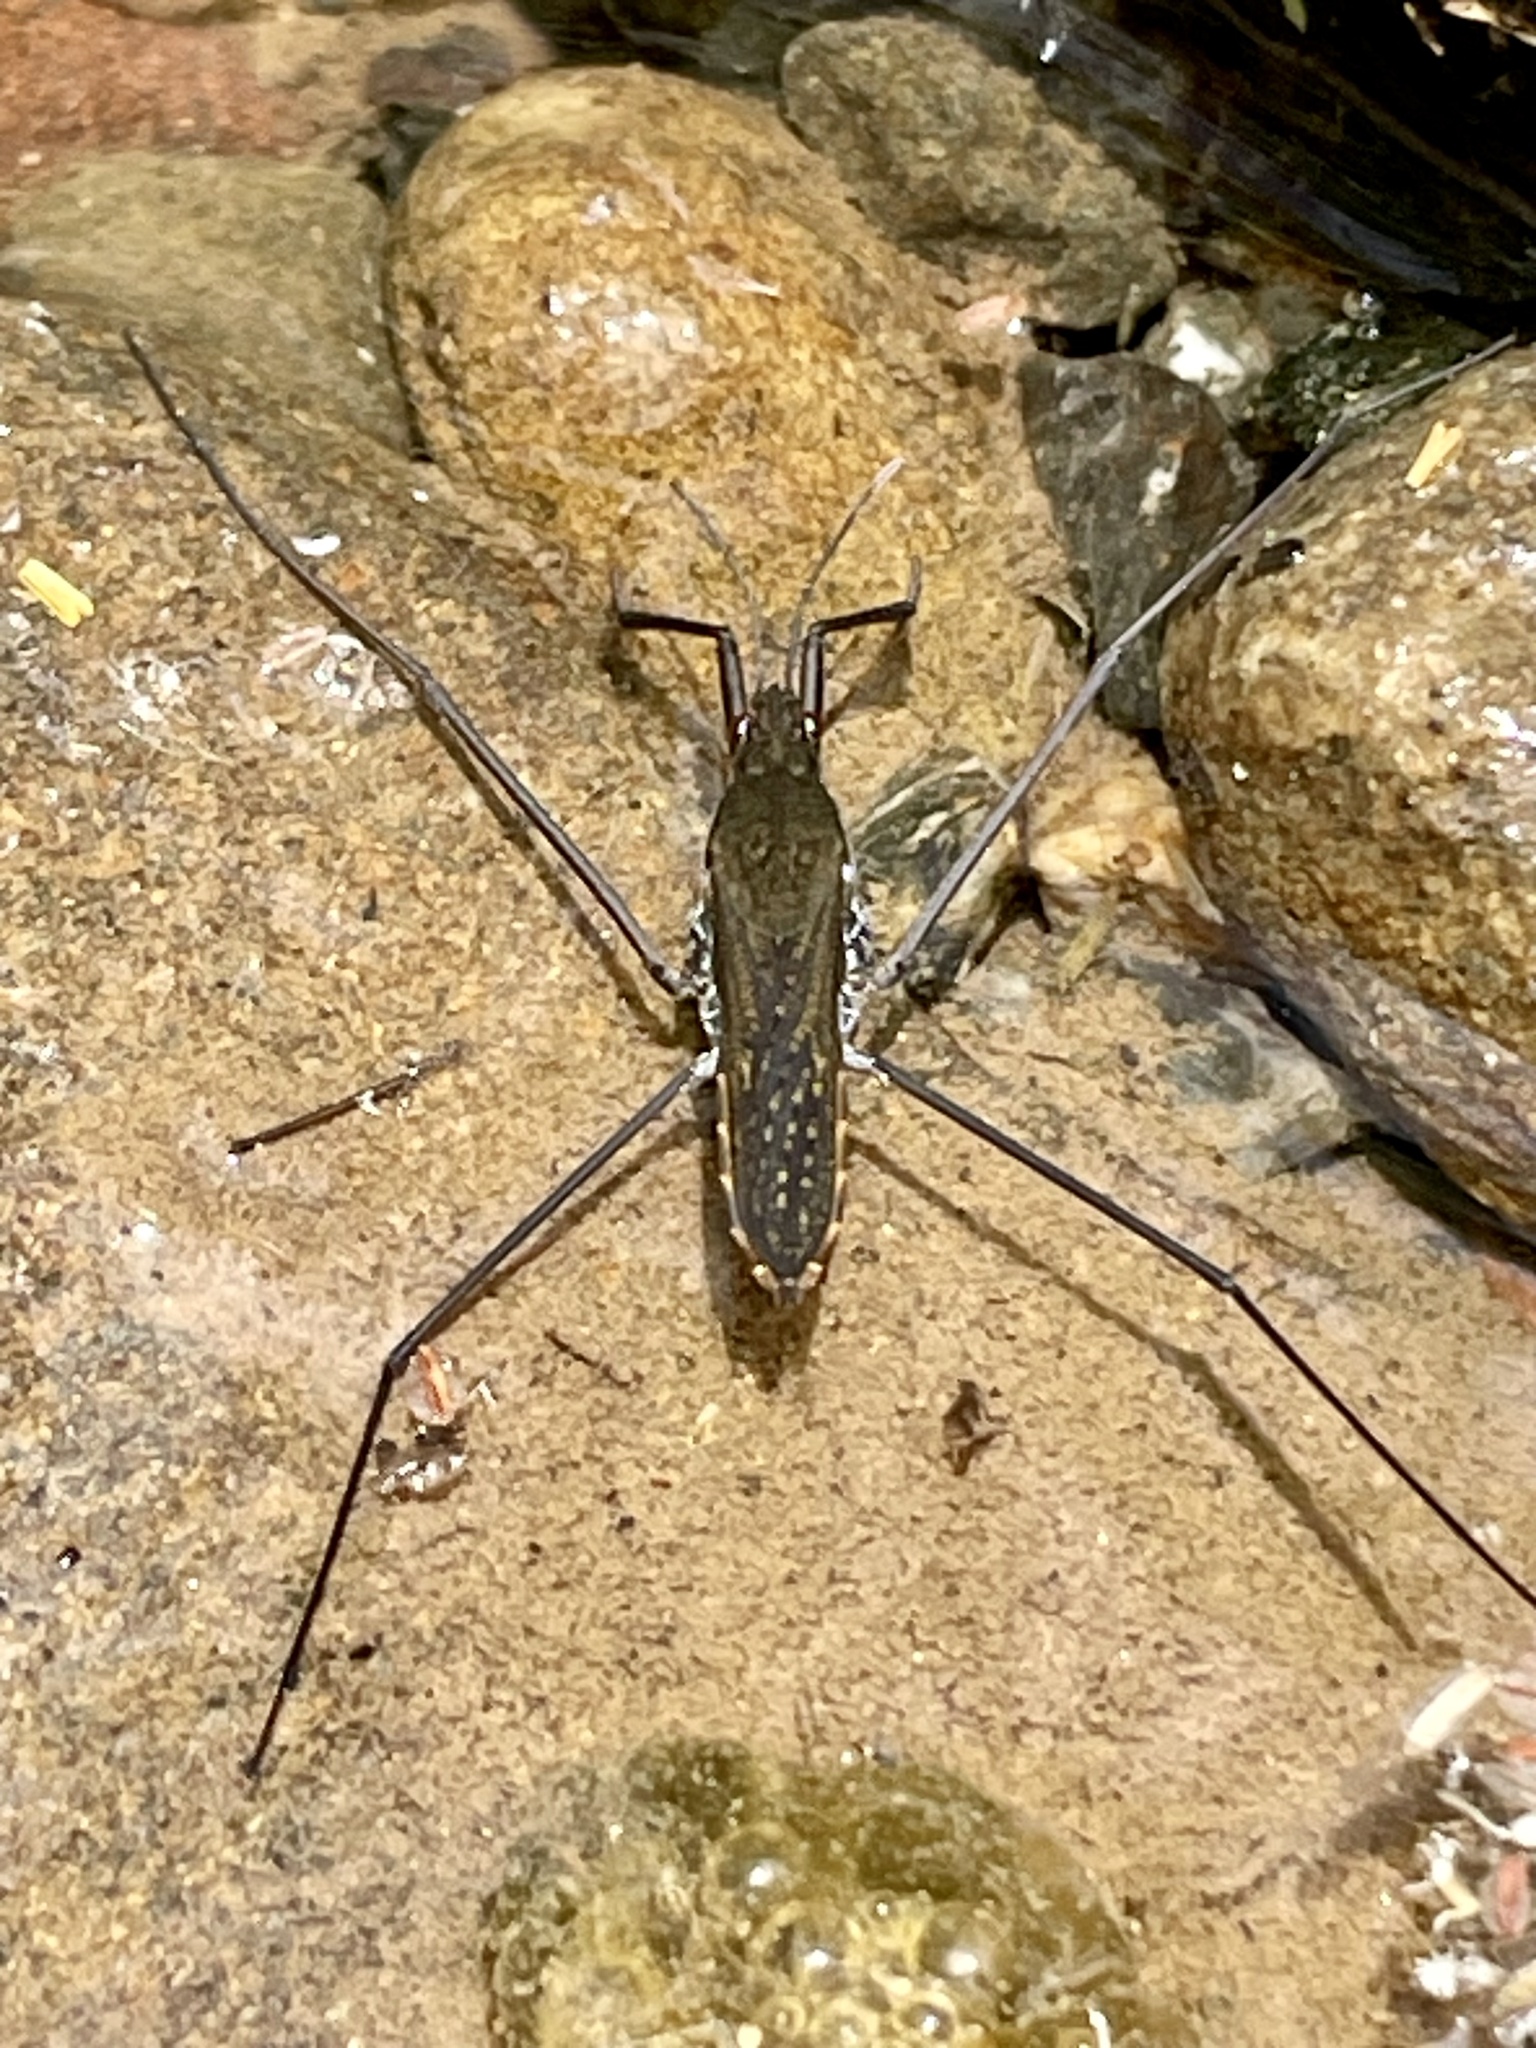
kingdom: Animalia
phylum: Arthropoda
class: Insecta
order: Hemiptera
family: Gerridae
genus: Aquarius
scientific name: Aquarius remigis
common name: Common water strider
